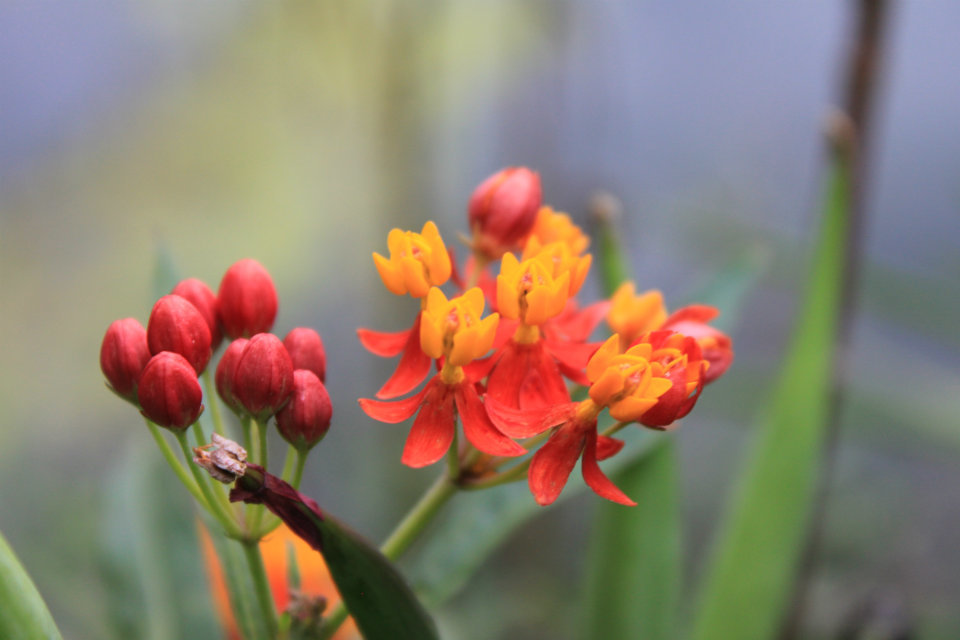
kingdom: Plantae
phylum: Tracheophyta
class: Magnoliopsida
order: Gentianales
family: Apocynaceae
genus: Asclepias
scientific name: Asclepias curassavica
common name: Bloodflower
